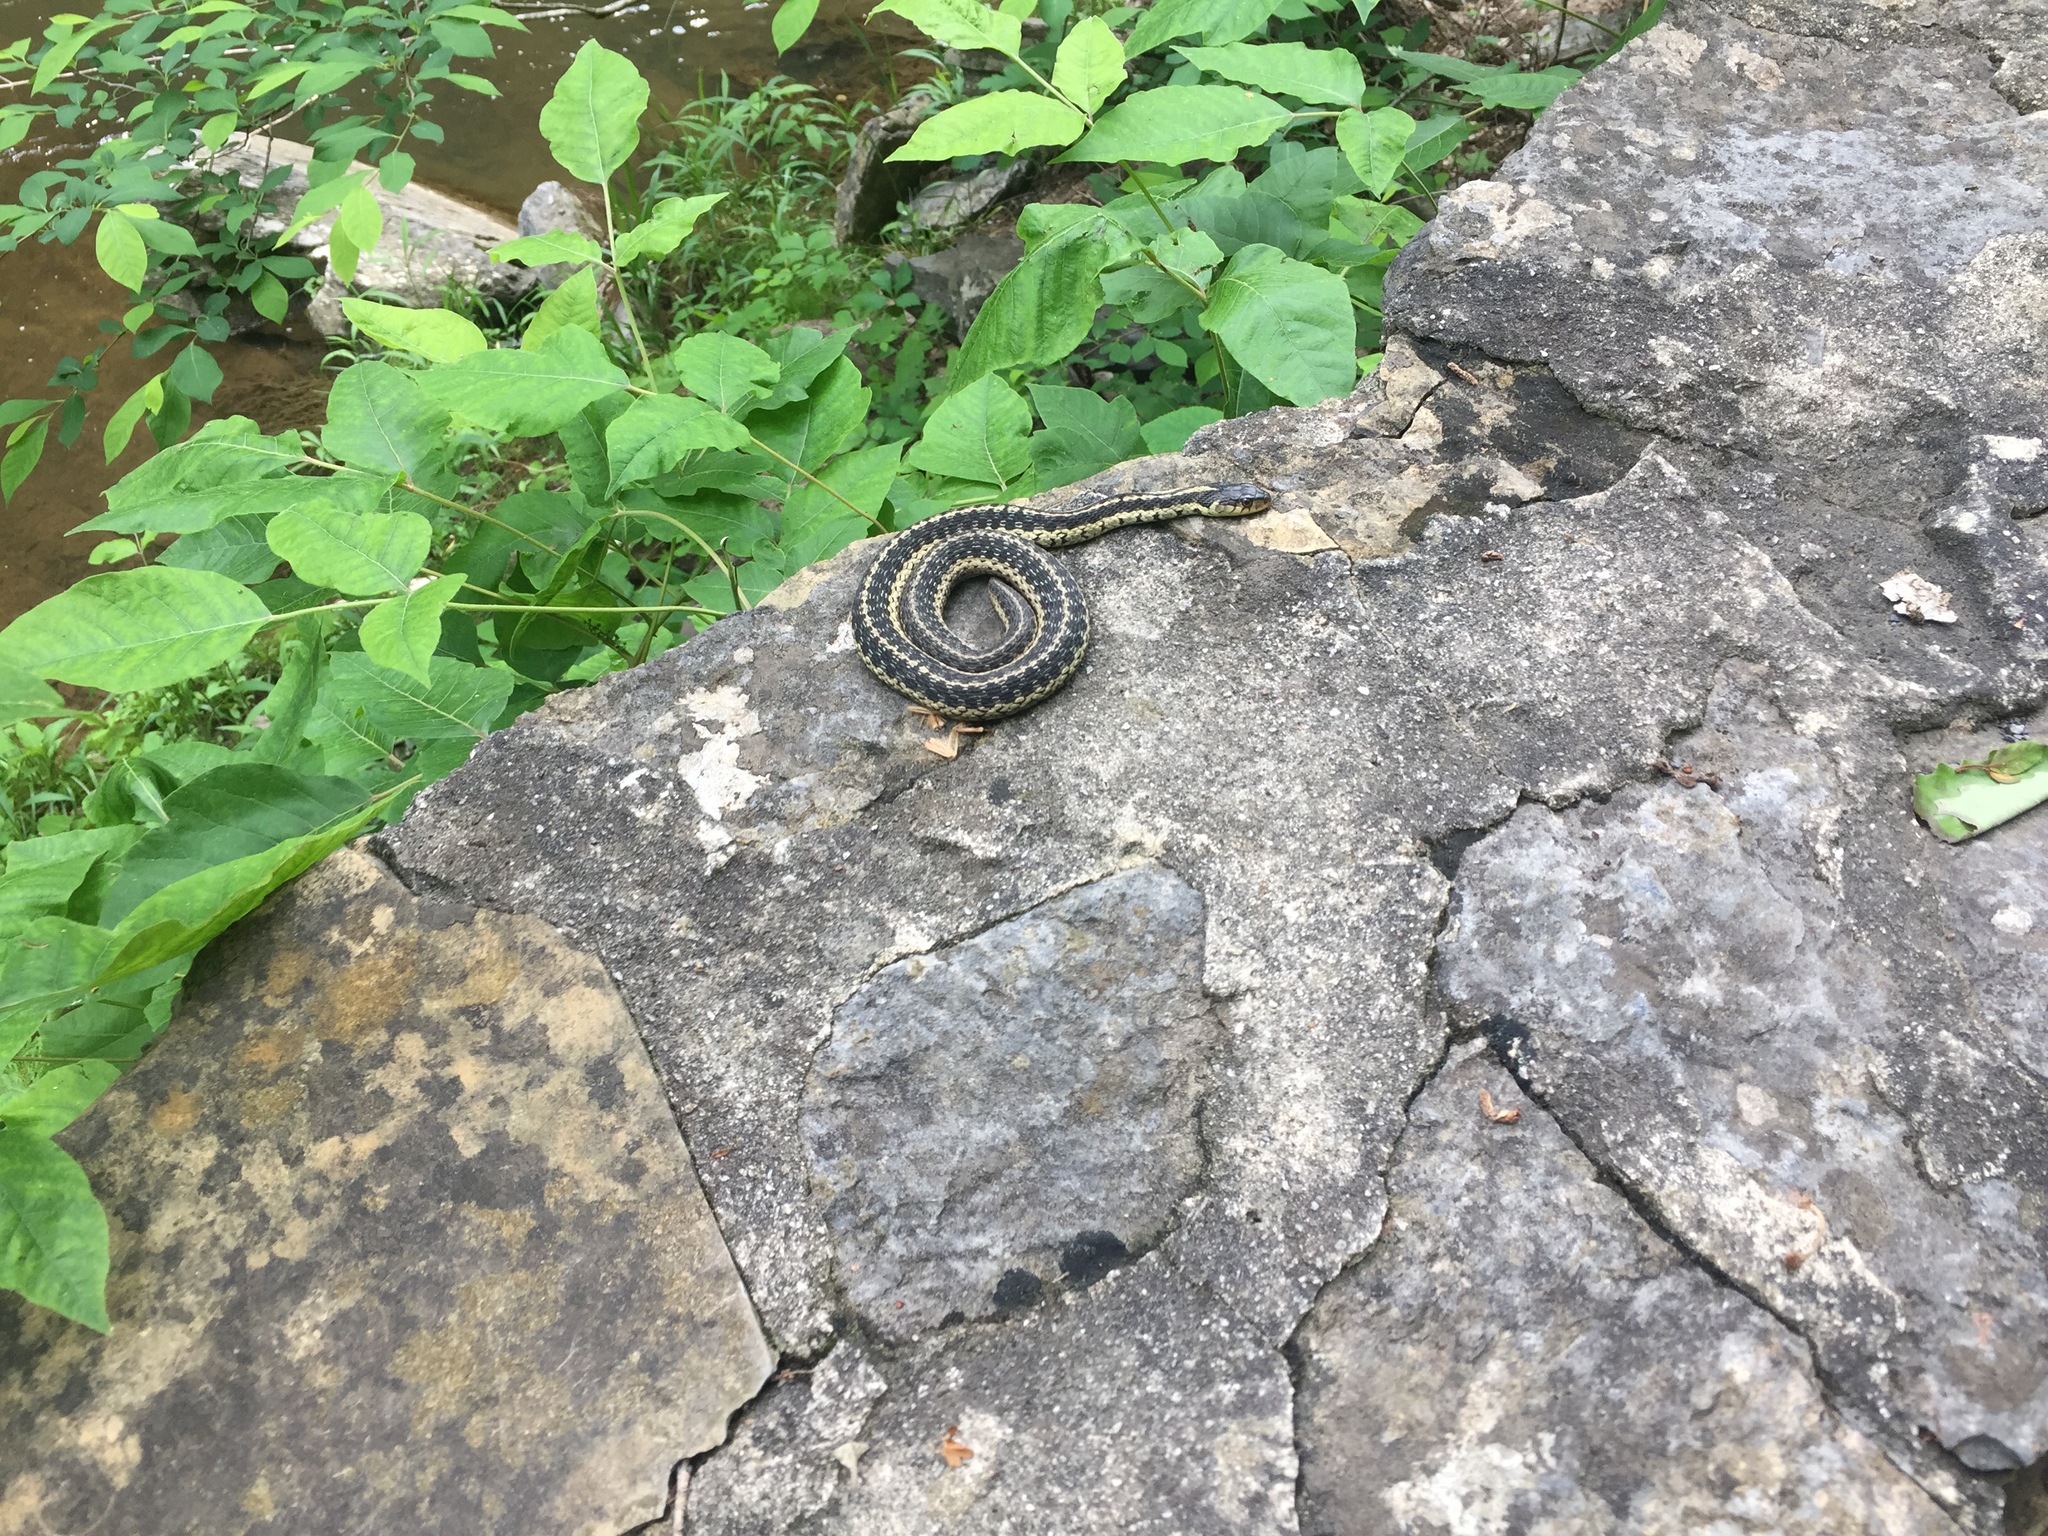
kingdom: Animalia
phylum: Chordata
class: Squamata
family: Colubridae
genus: Thamnophis
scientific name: Thamnophis sirtalis
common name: Common garter snake
